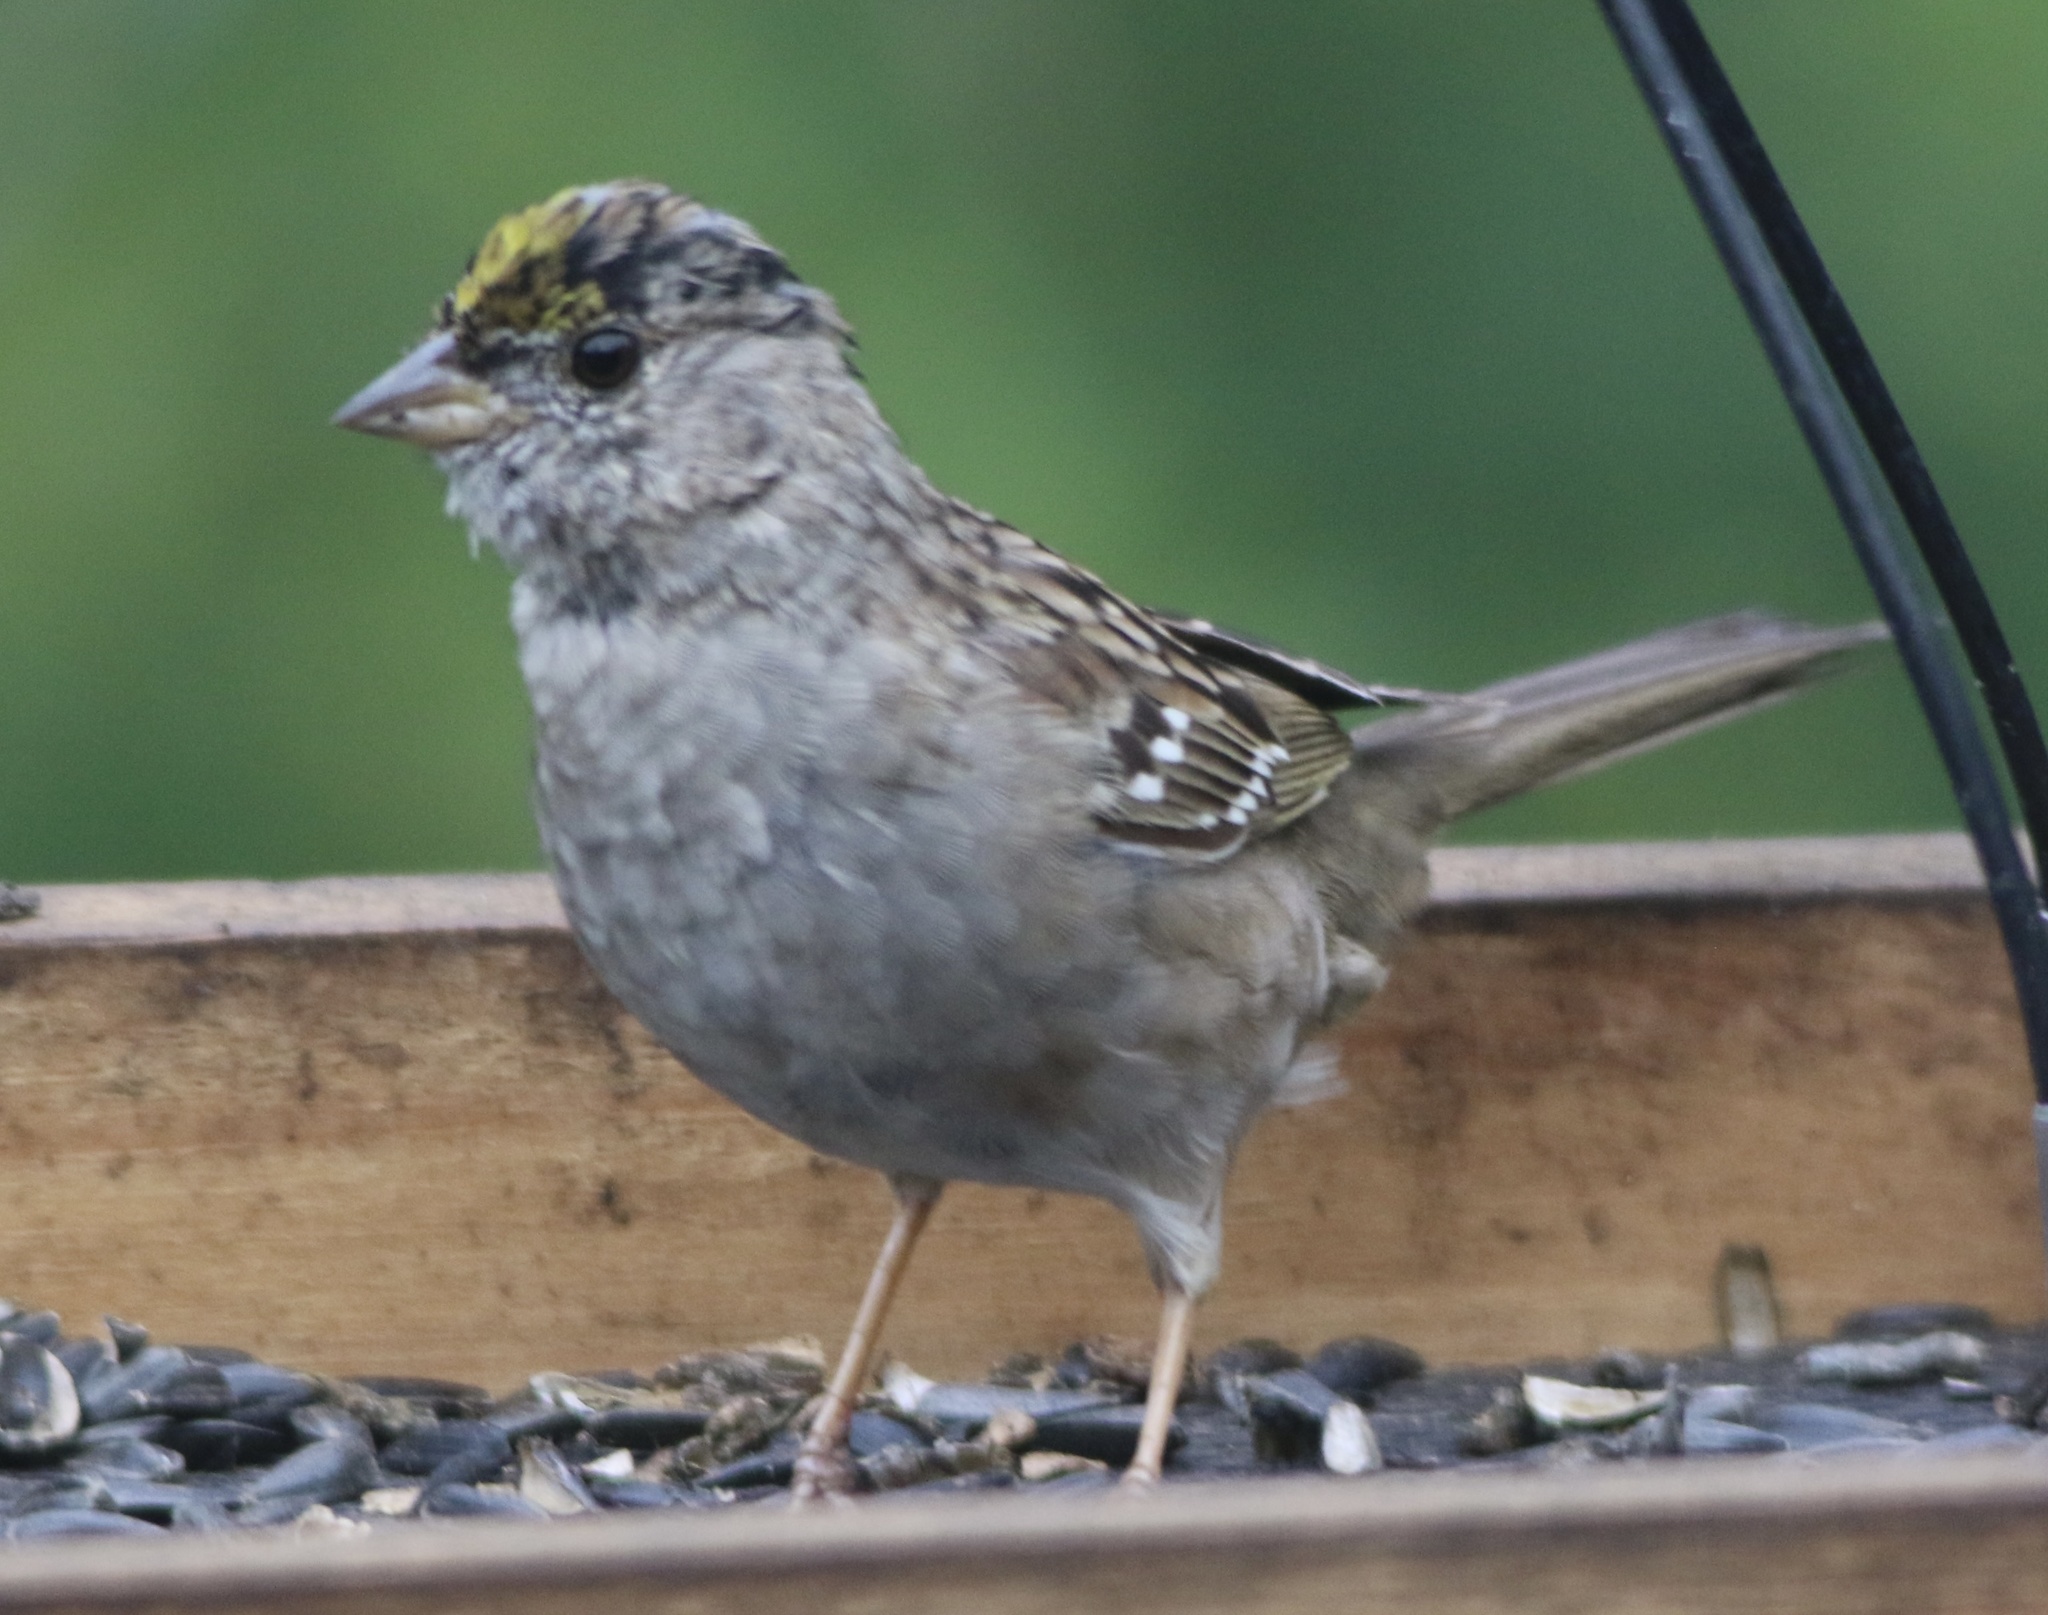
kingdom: Animalia
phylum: Chordata
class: Aves
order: Passeriformes
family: Passerellidae
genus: Zonotrichia
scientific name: Zonotrichia atricapilla
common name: Golden-crowned sparrow
